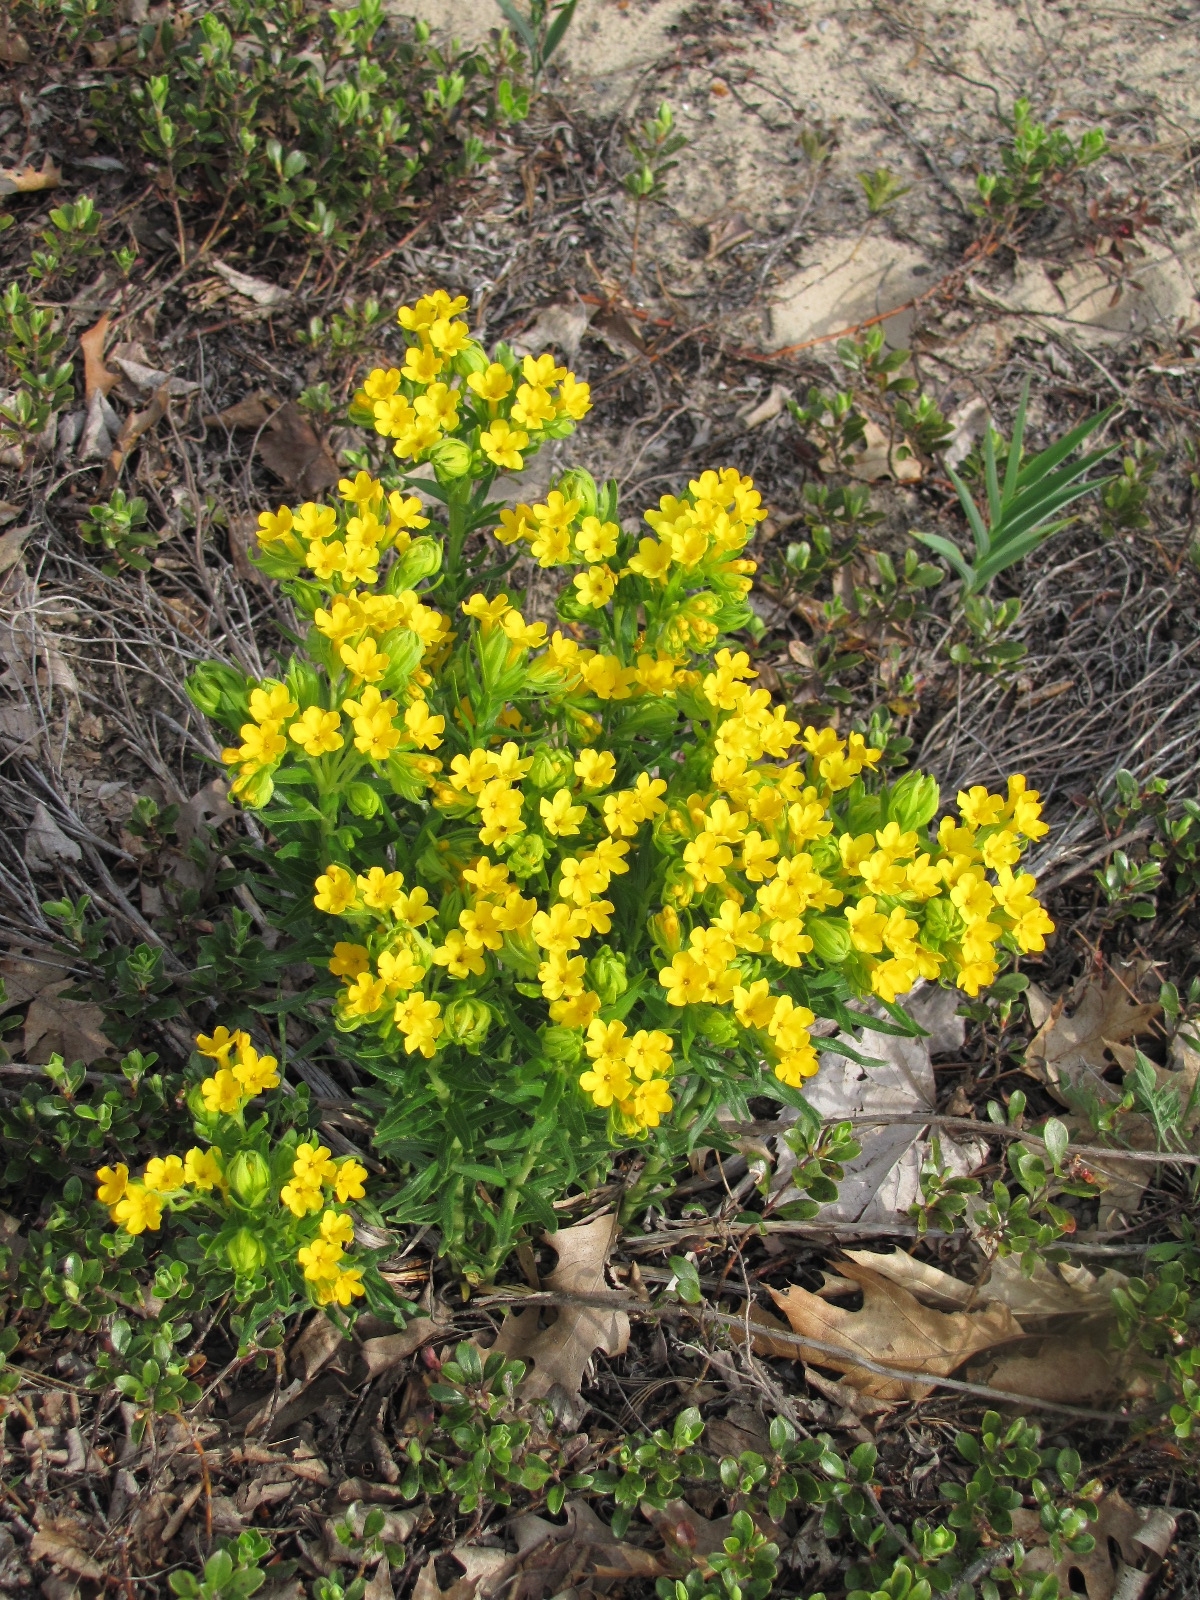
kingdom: Plantae
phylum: Tracheophyta
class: Magnoliopsida
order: Boraginales
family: Boraginaceae
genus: Lithospermum
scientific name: Lithospermum caroliniense
